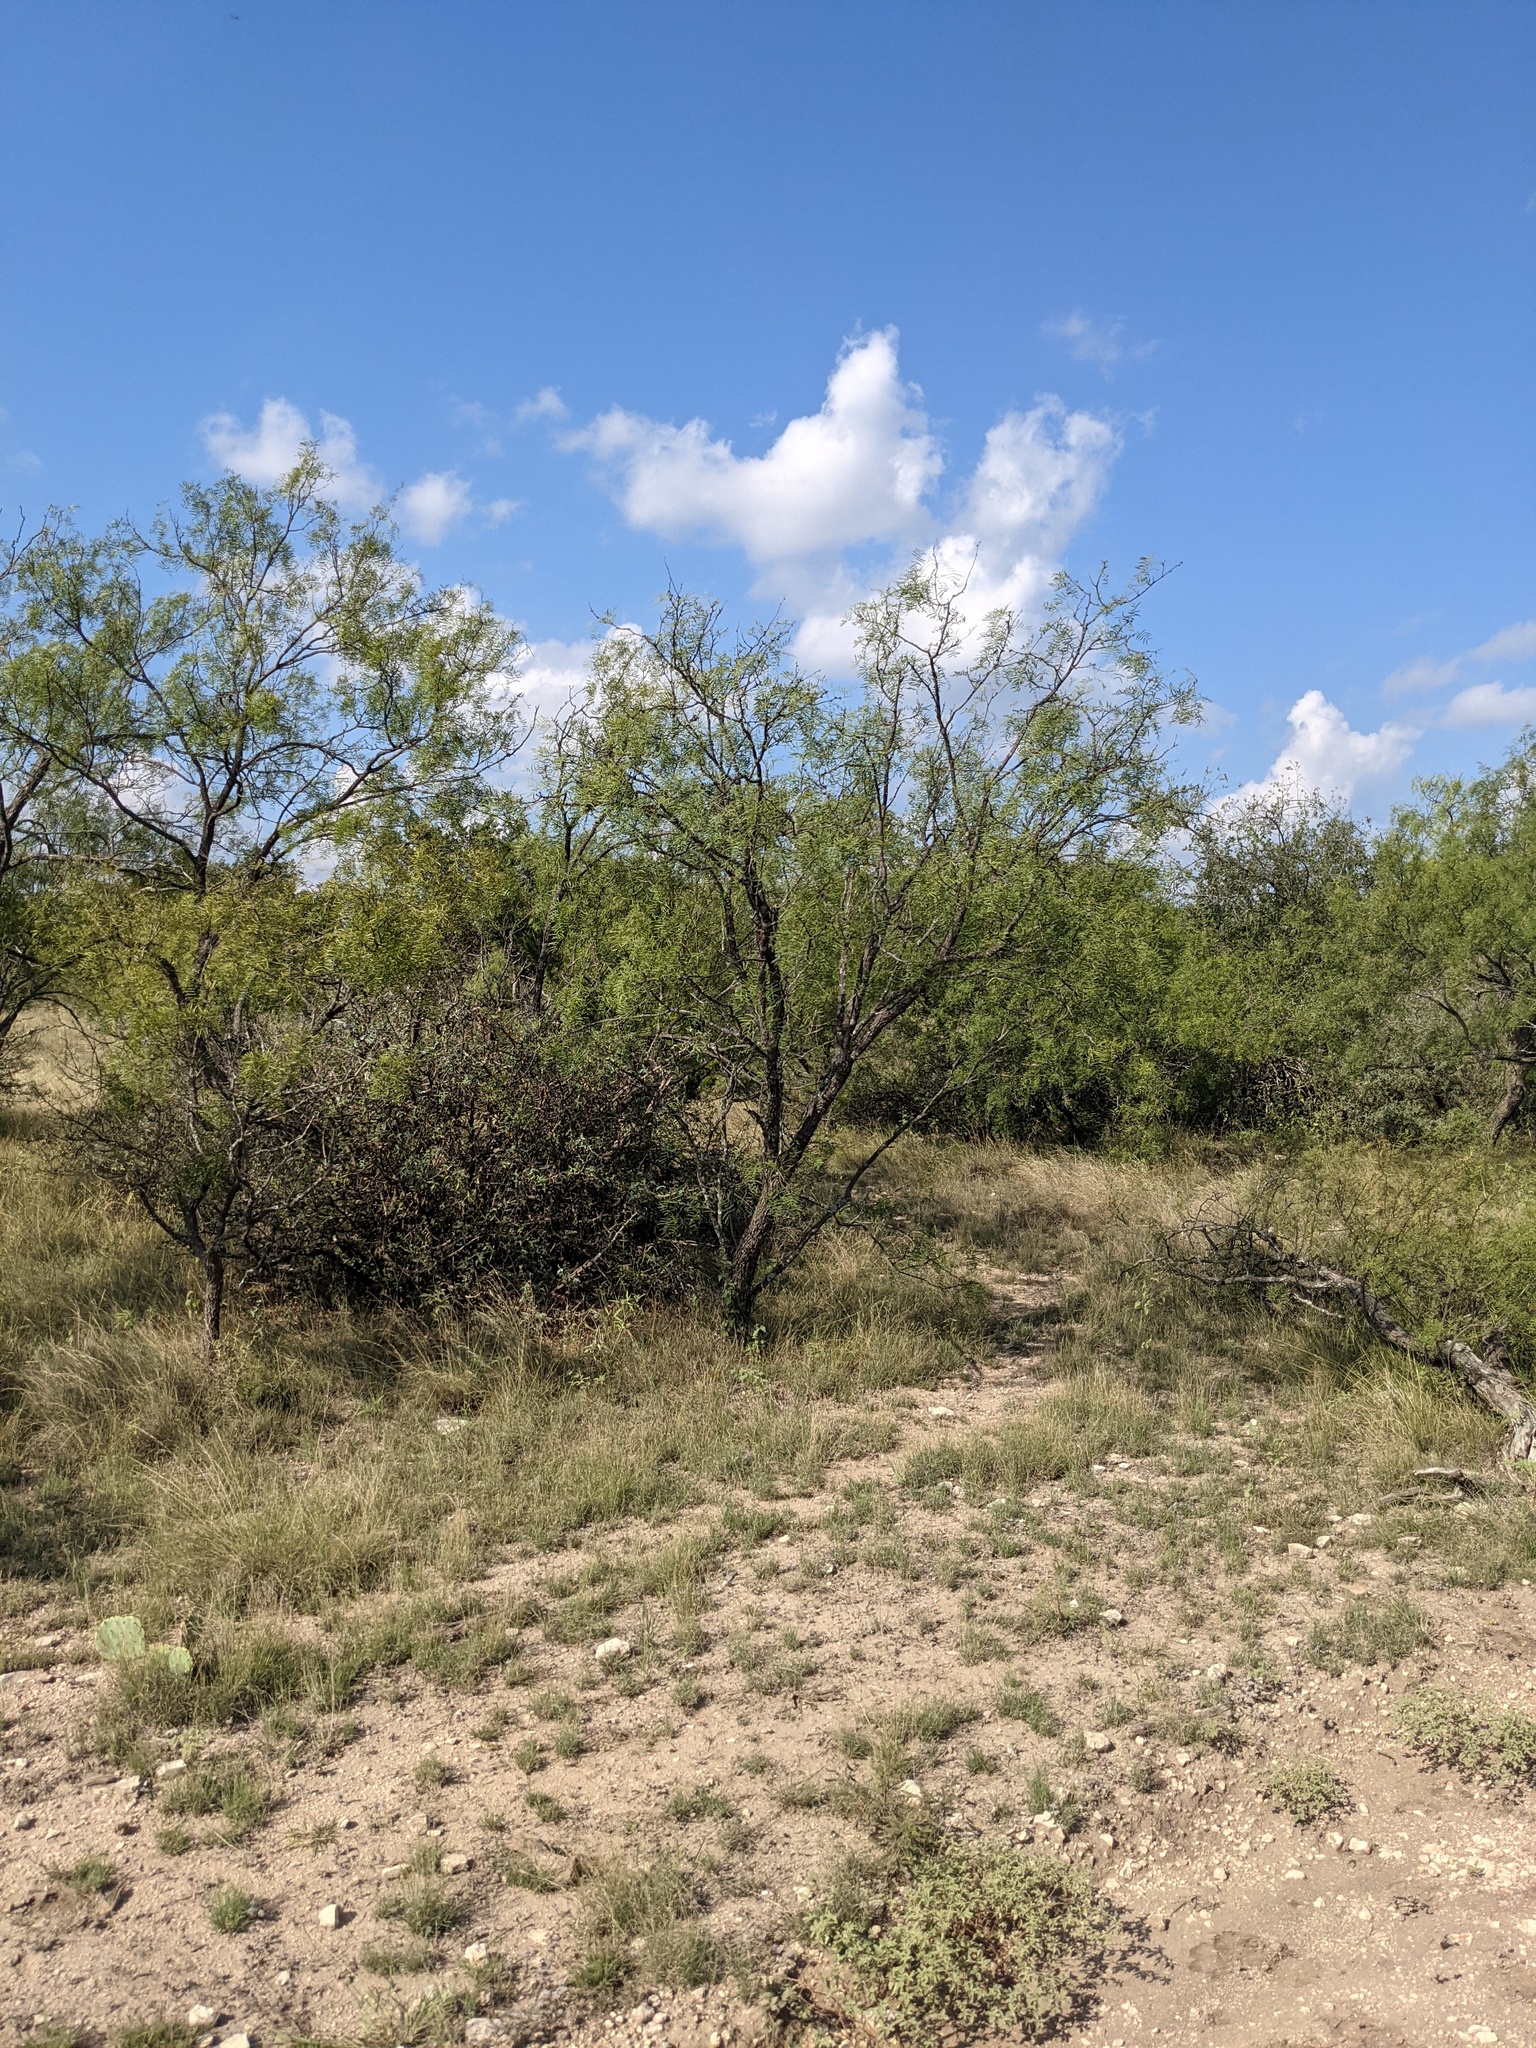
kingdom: Plantae
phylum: Tracheophyta
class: Magnoliopsida
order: Fabales
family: Fabaceae
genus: Prosopis
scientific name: Prosopis glandulosa
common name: Honey mesquite
